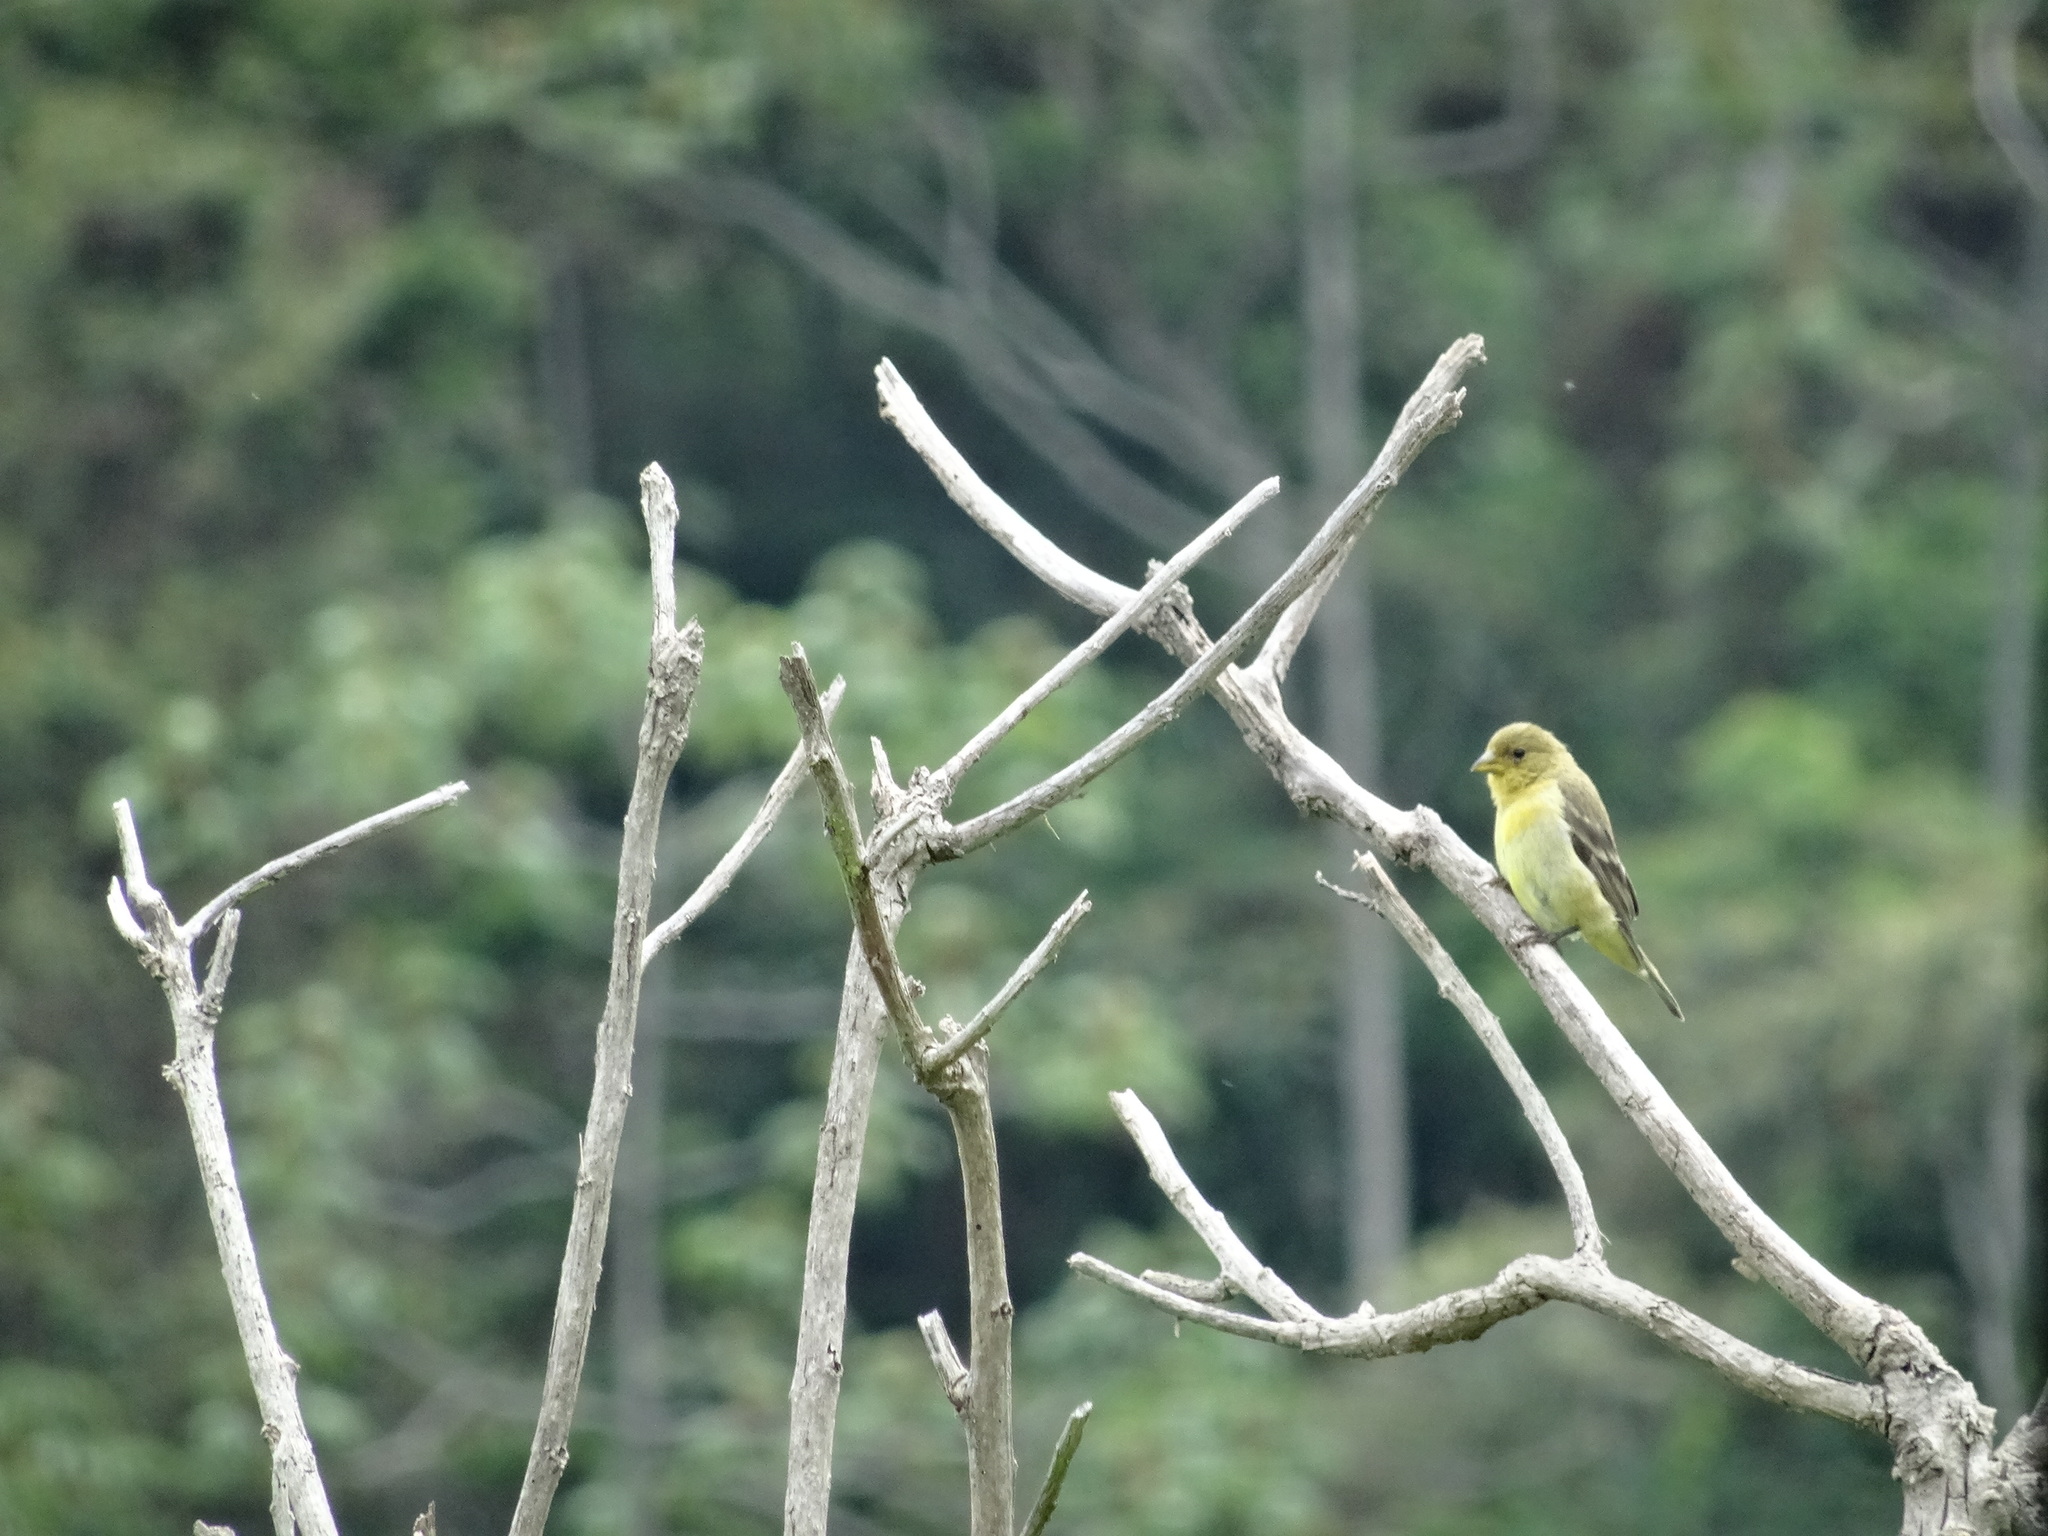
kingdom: Animalia
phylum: Chordata
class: Aves
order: Passeriformes
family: Fringillidae
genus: Spinus
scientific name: Spinus psaltria
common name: Lesser goldfinch
